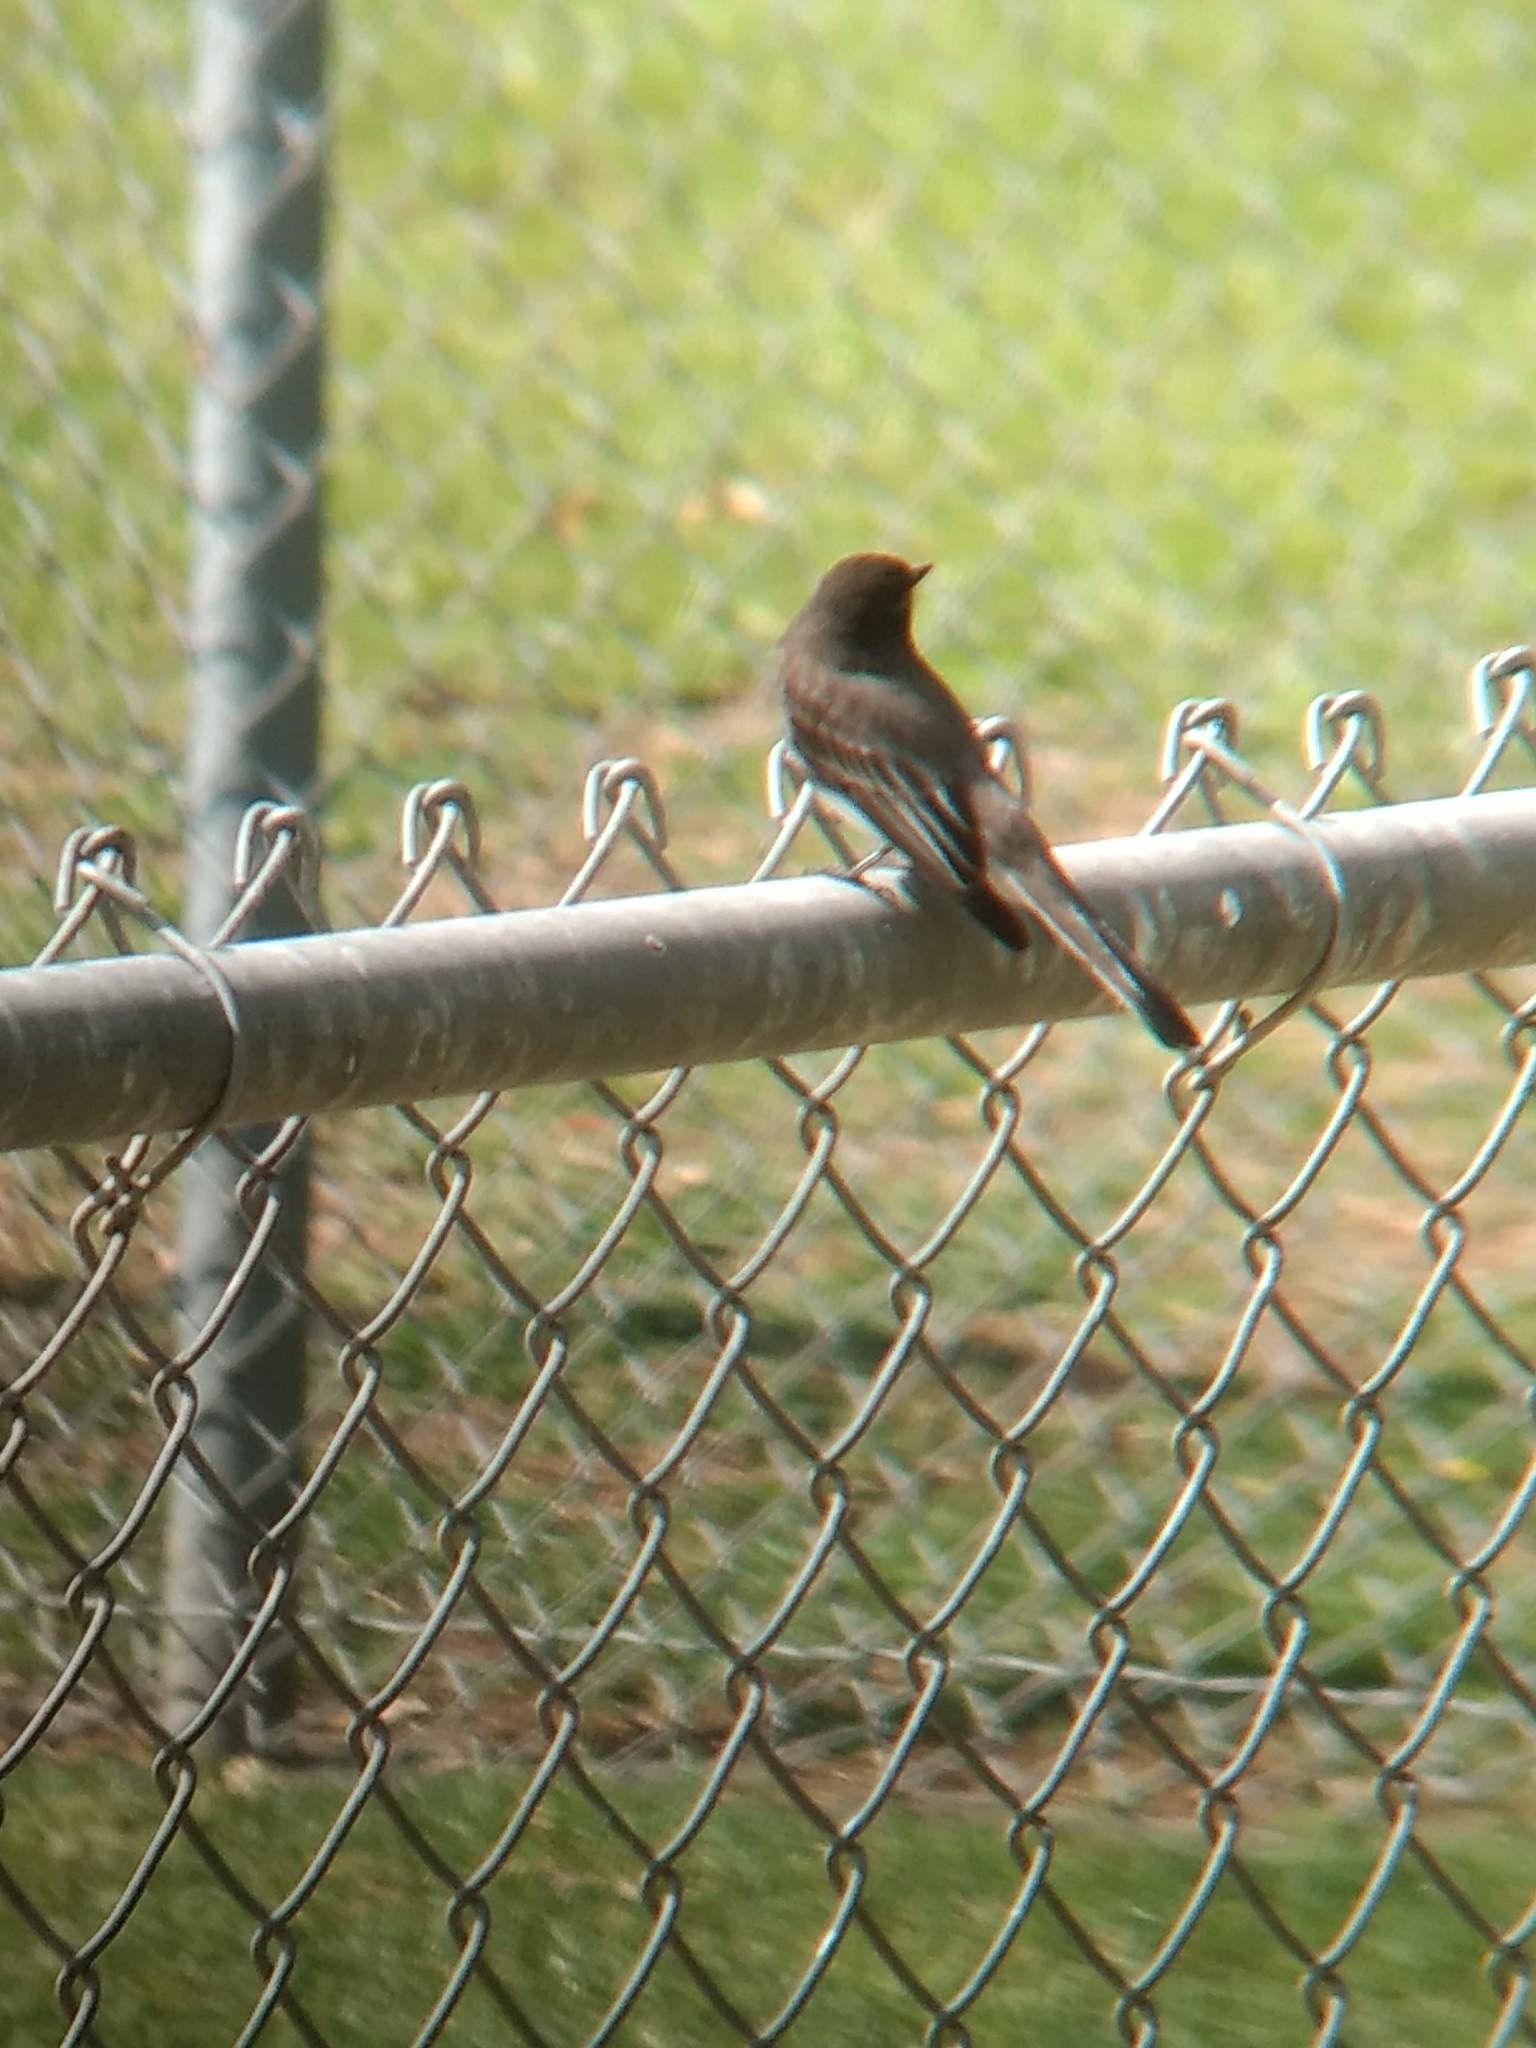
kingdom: Animalia
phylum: Chordata
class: Aves
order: Passeriformes
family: Tyrannidae
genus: Sayornis
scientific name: Sayornis nigricans
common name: Black phoebe
